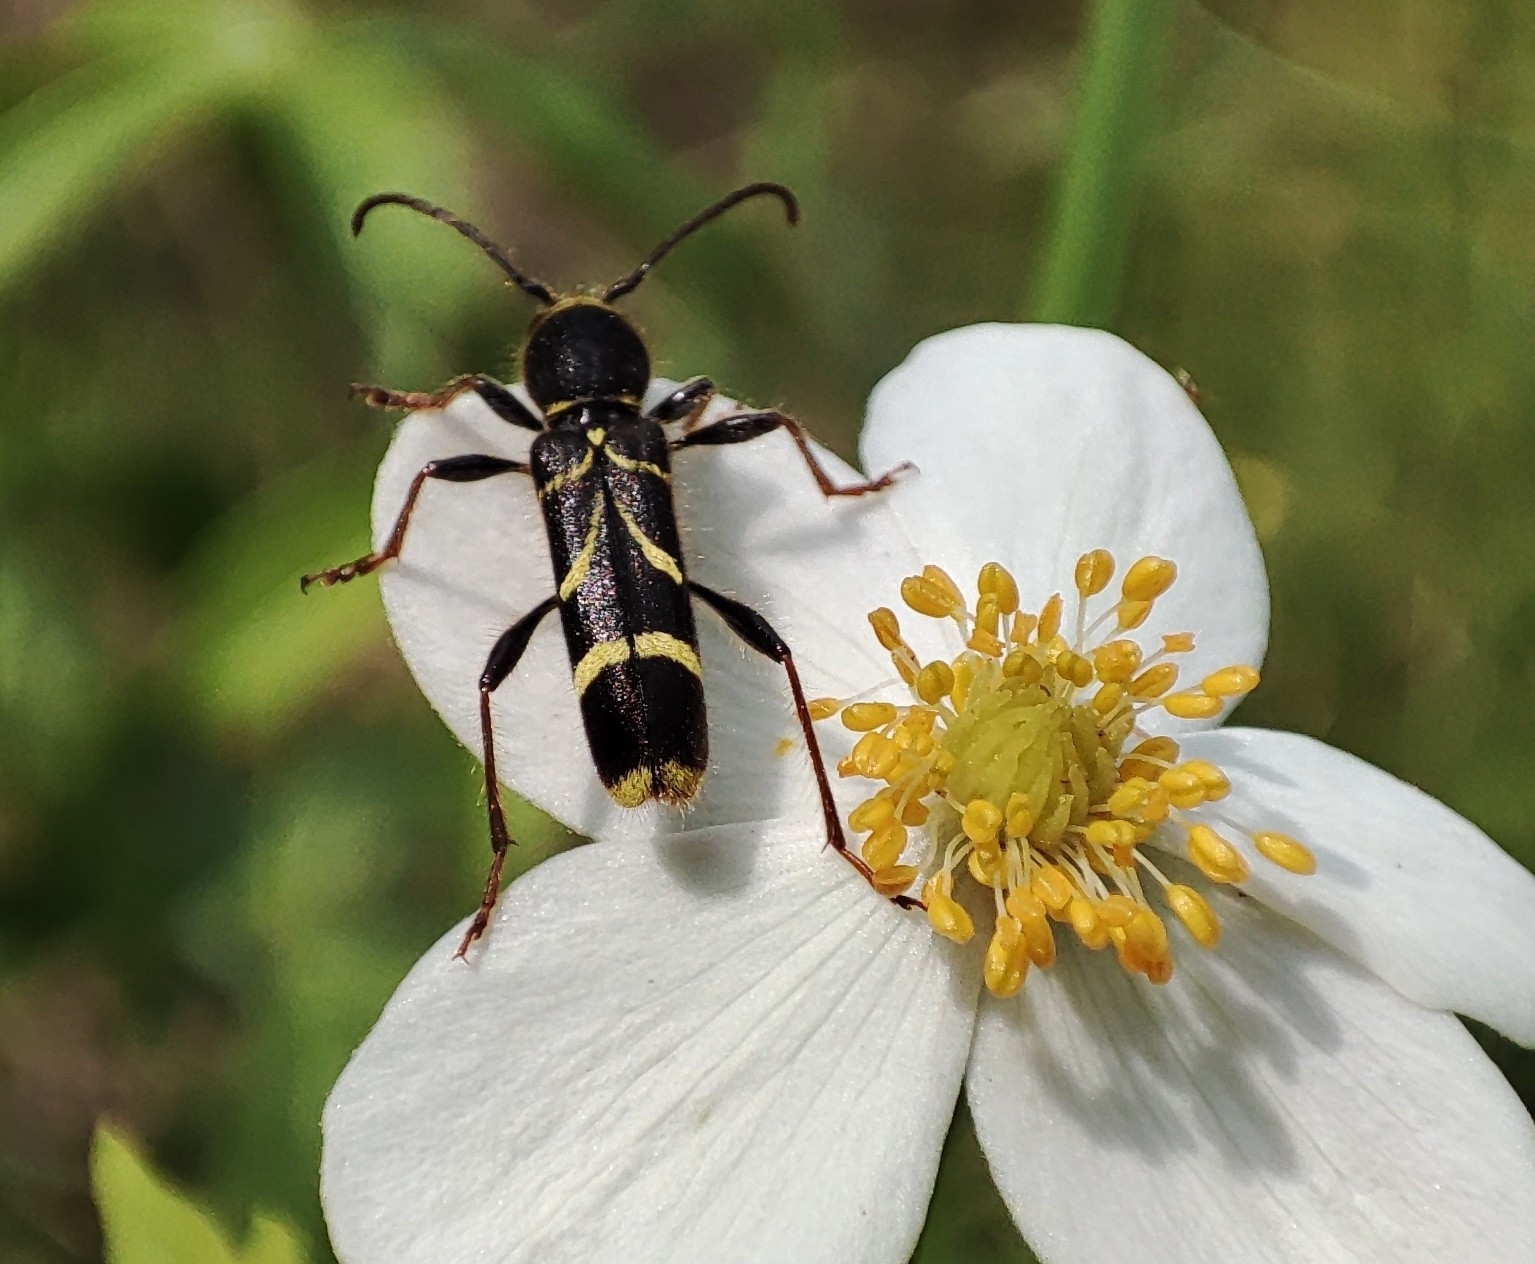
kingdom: Animalia
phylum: Arthropoda
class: Insecta
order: Coleoptera
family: Cerambycidae
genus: Cyrtoclytus
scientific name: Cyrtoclytus capra
